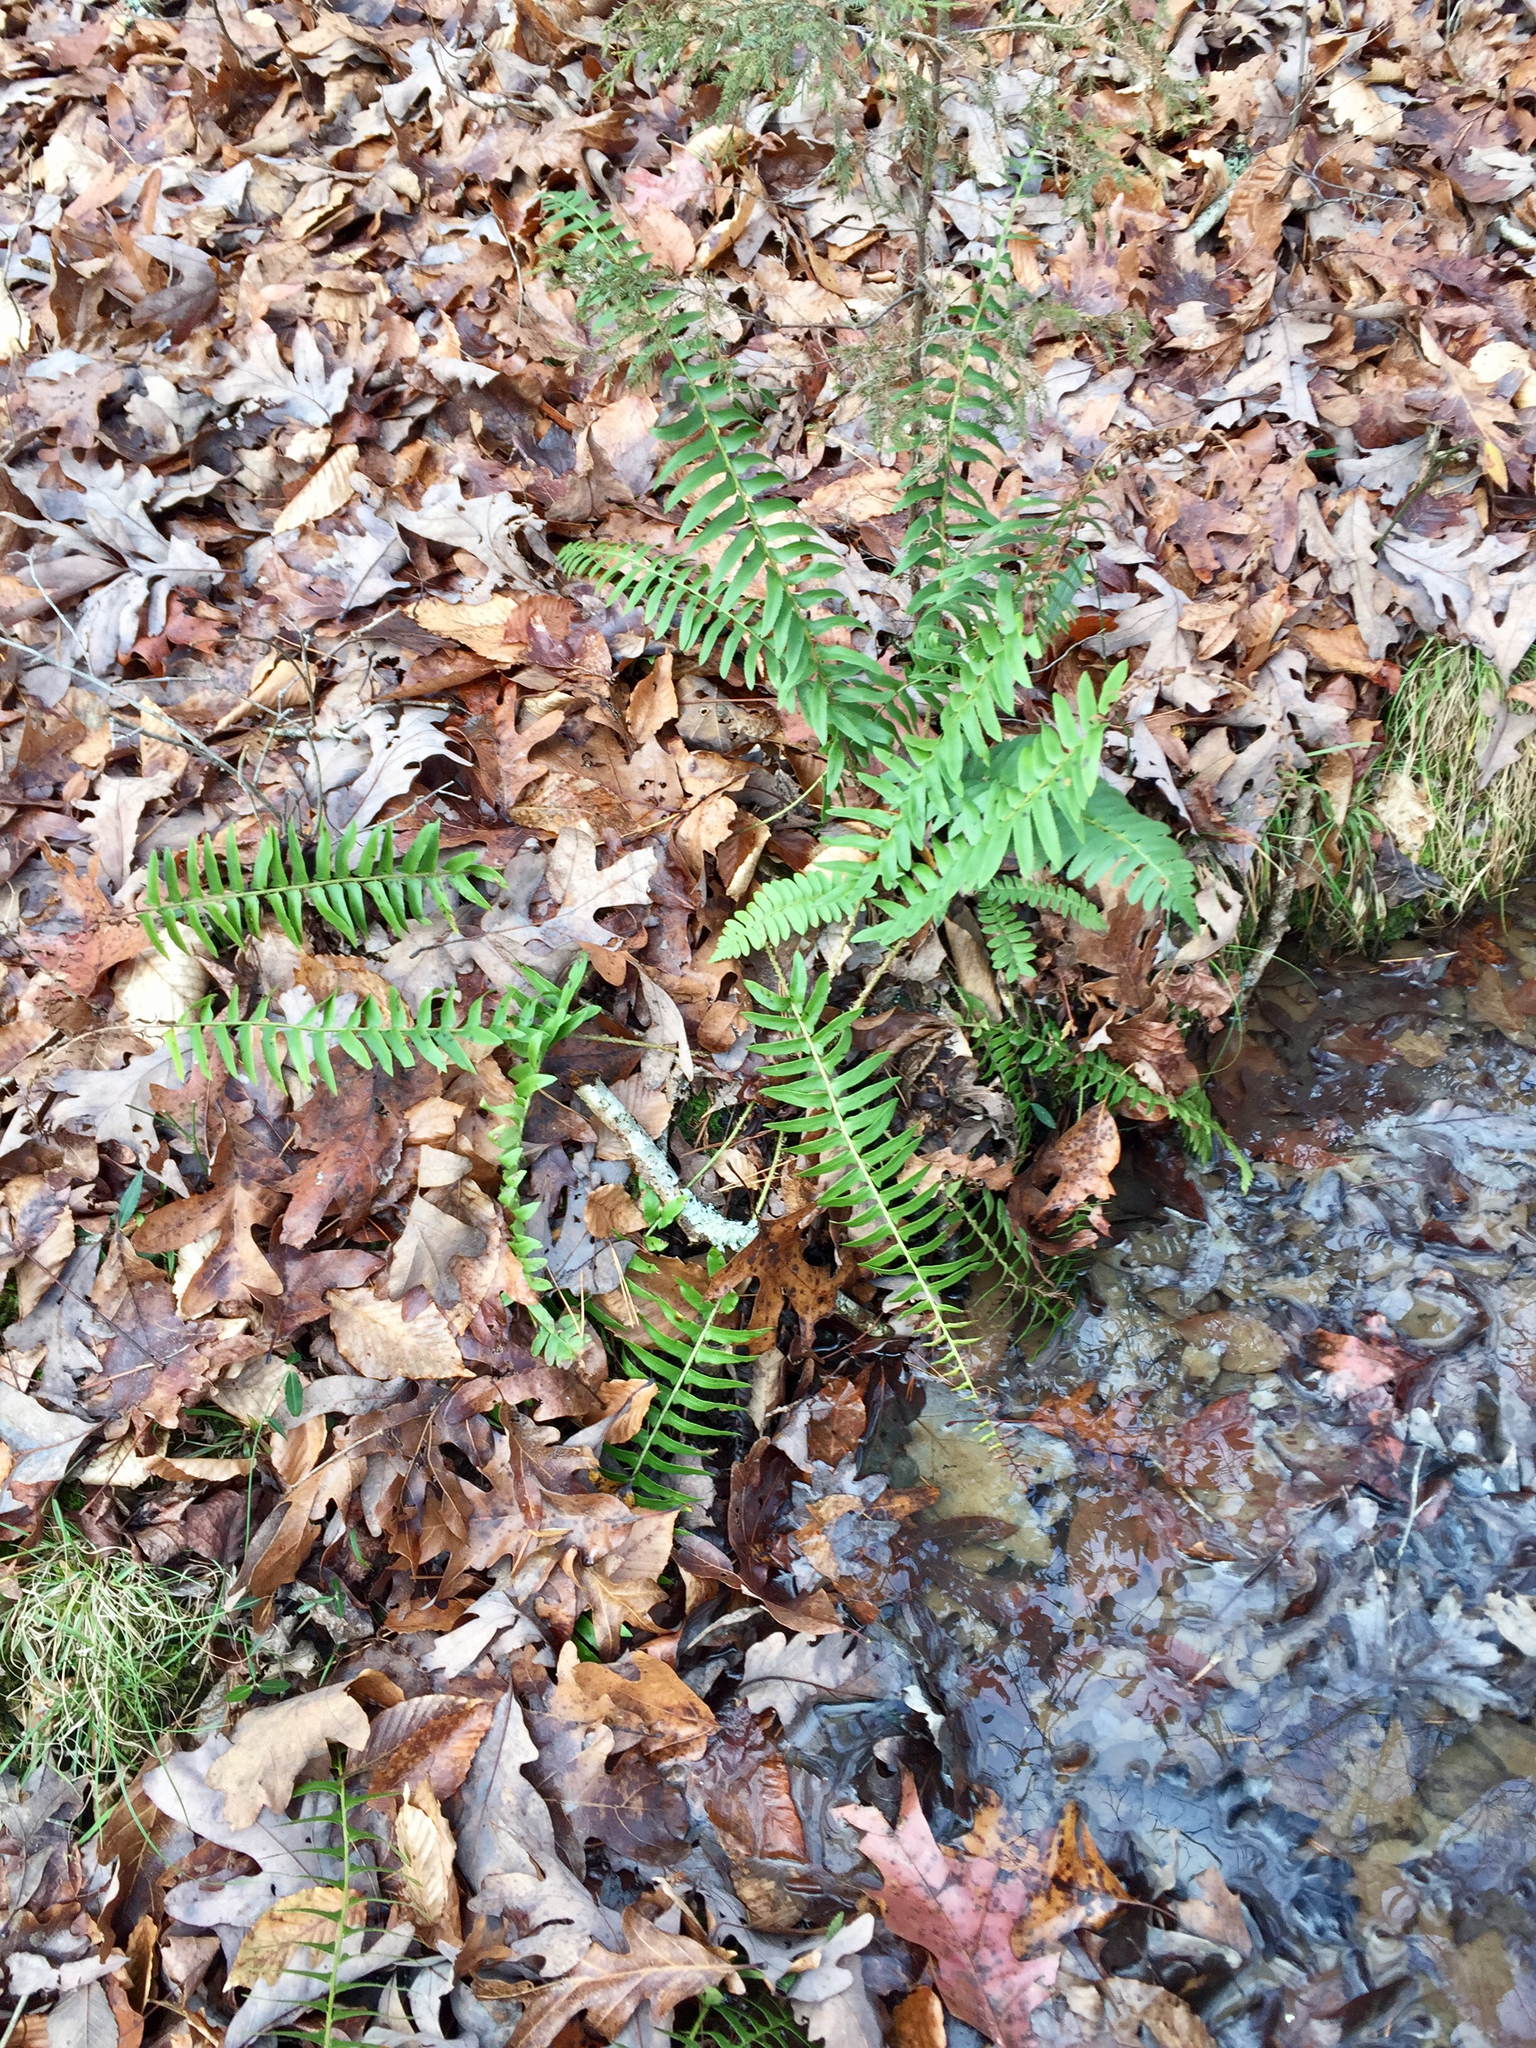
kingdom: Plantae
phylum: Tracheophyta
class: Polypodiopsida
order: Polypodiales
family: Dryopteridaceae
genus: Polystichum
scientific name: Polystichum acrostichoides
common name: Christmas fern
